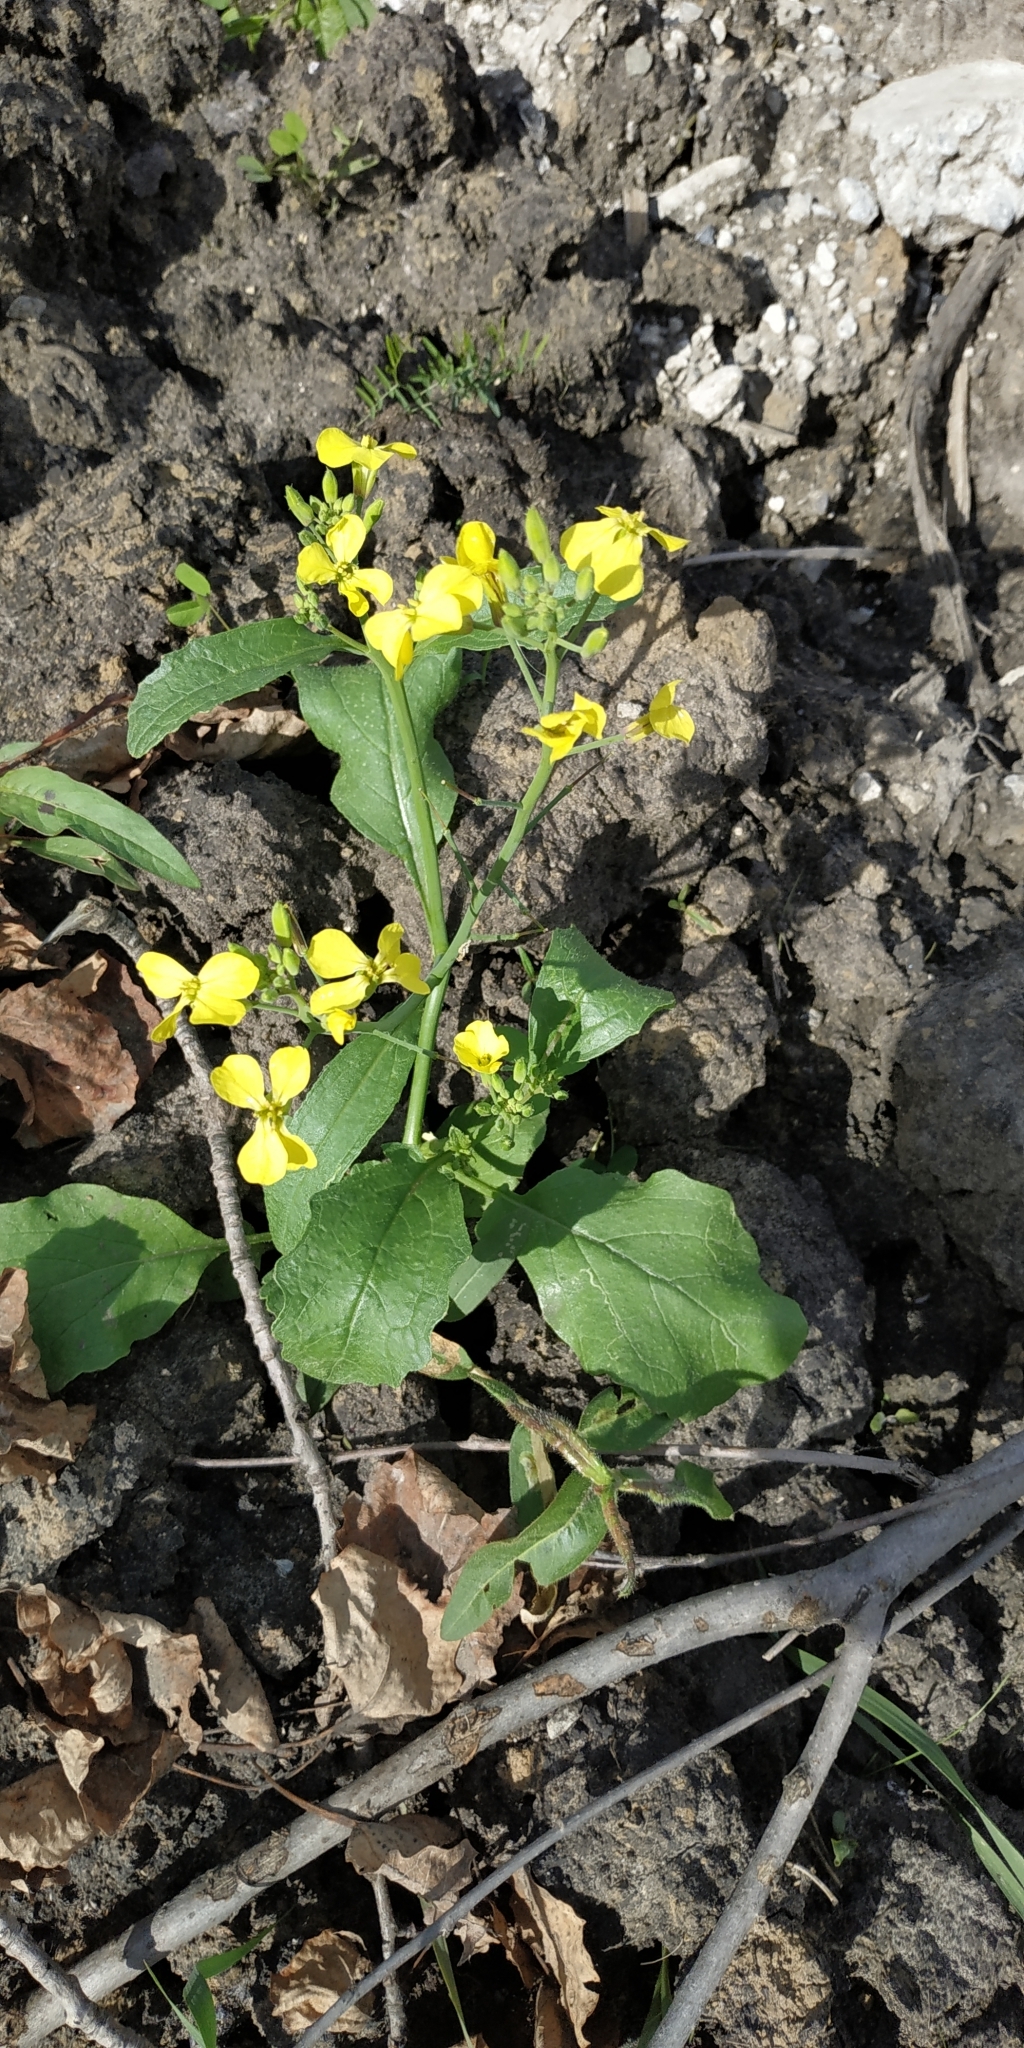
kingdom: Plantae
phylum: Tracheophyta
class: Magnoliopsida
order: Brassicales
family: Brassicaceae
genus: Raphanus
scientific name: Raphanus raphanistrum
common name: Wild radish
